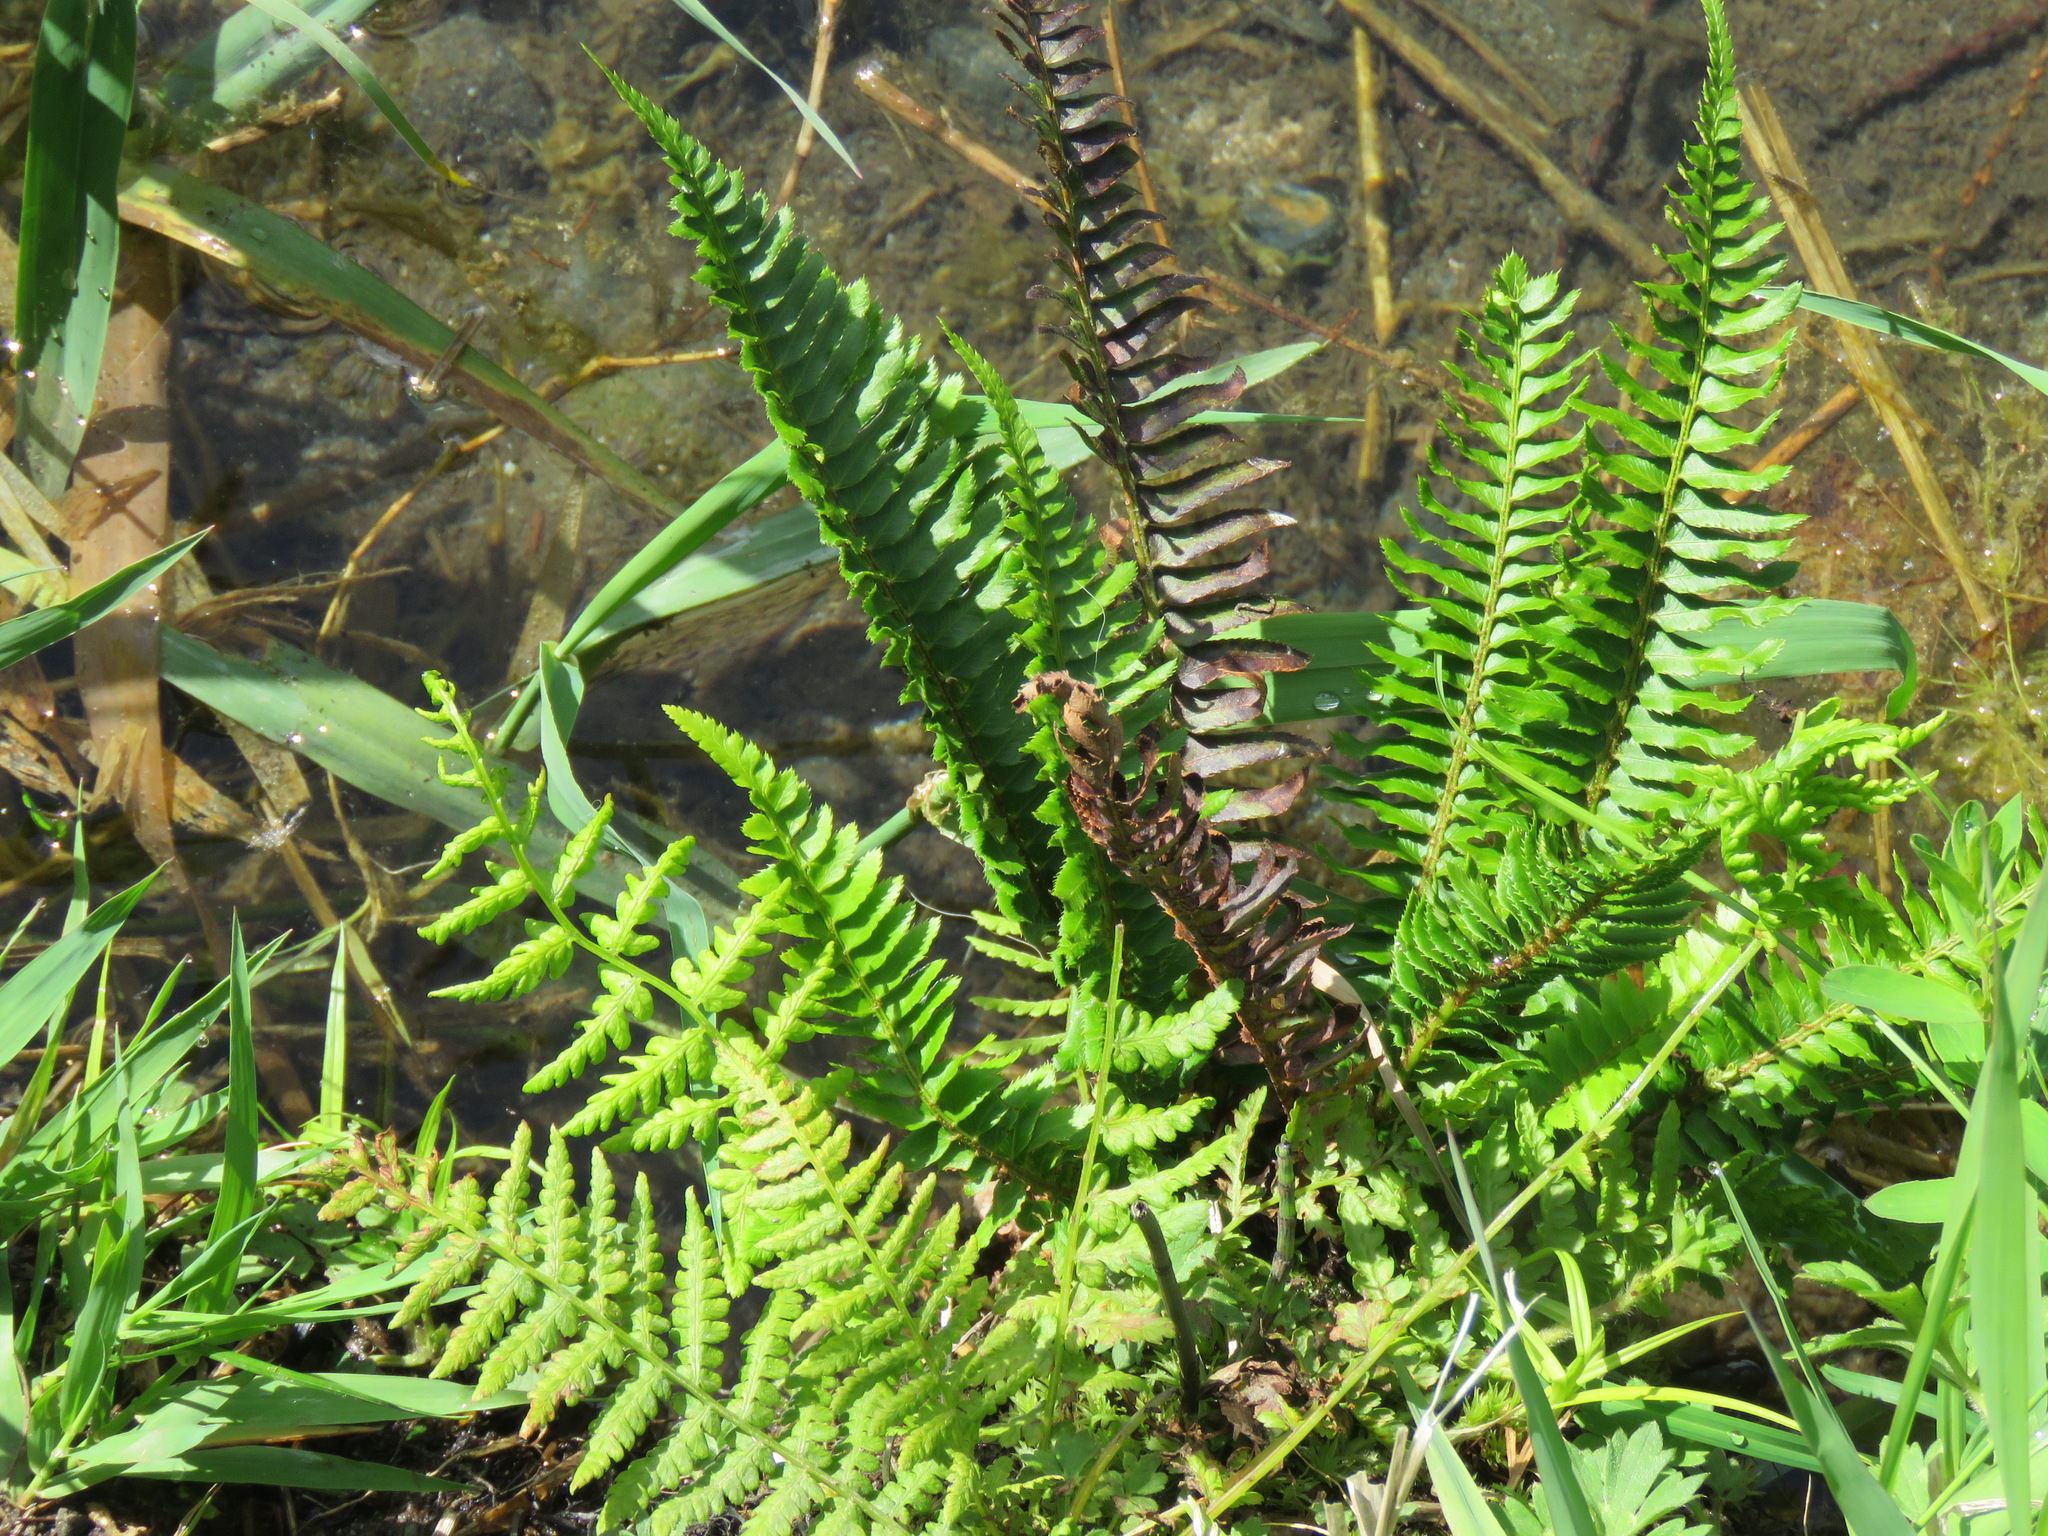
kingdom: Plantae
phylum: Tracheophyta
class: Polypodiopsida
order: Polypodiales
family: Dryopteridaceae
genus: Polystichum
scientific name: Polystichum munitum
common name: Western sword-fern
